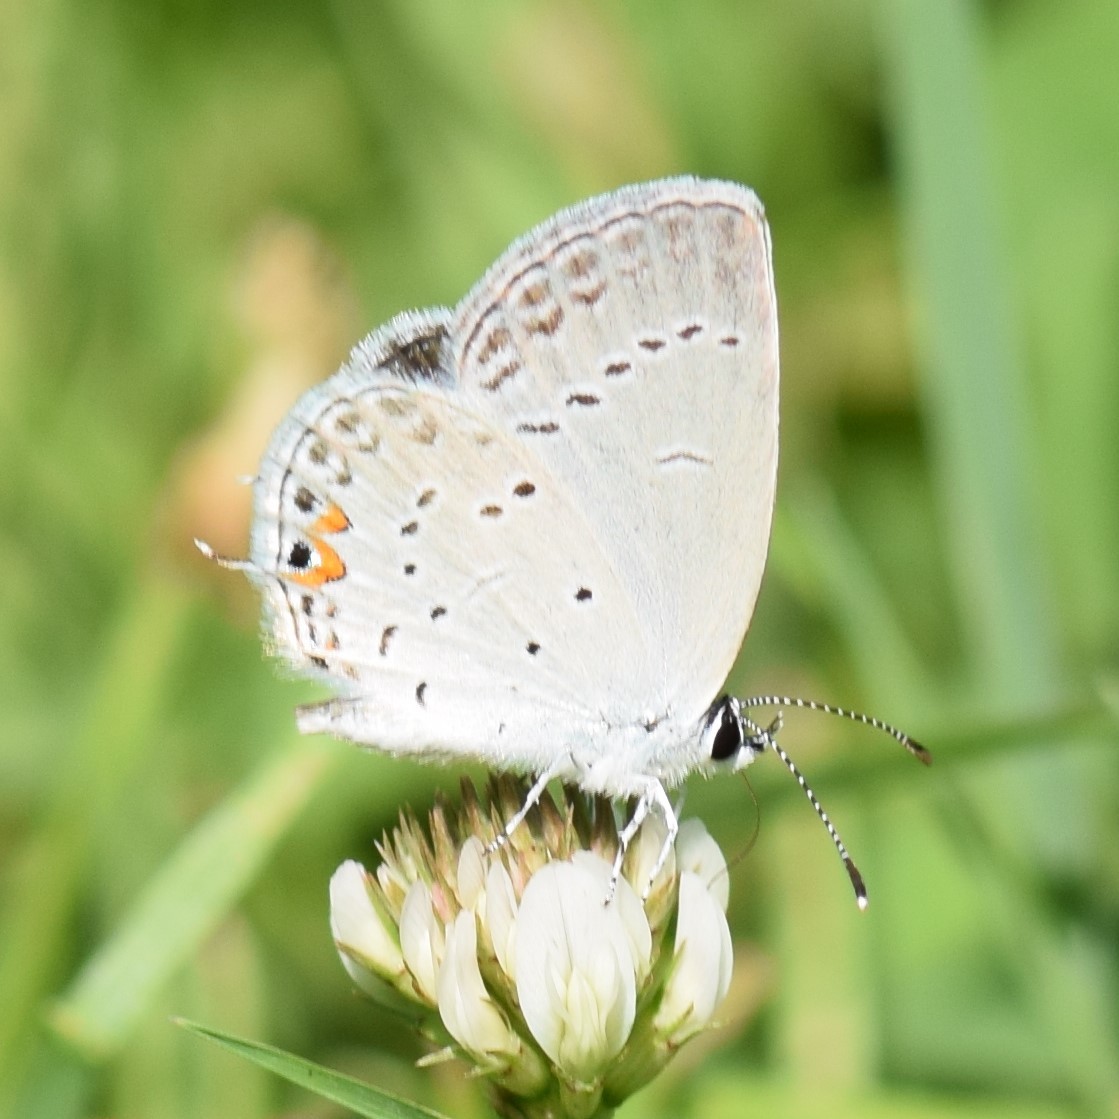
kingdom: Animalia
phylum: Arthropoda
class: Insecta
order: Lepidoptera
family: Lycaenidae
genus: Elkalyce
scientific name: Elkalyce comyntas
